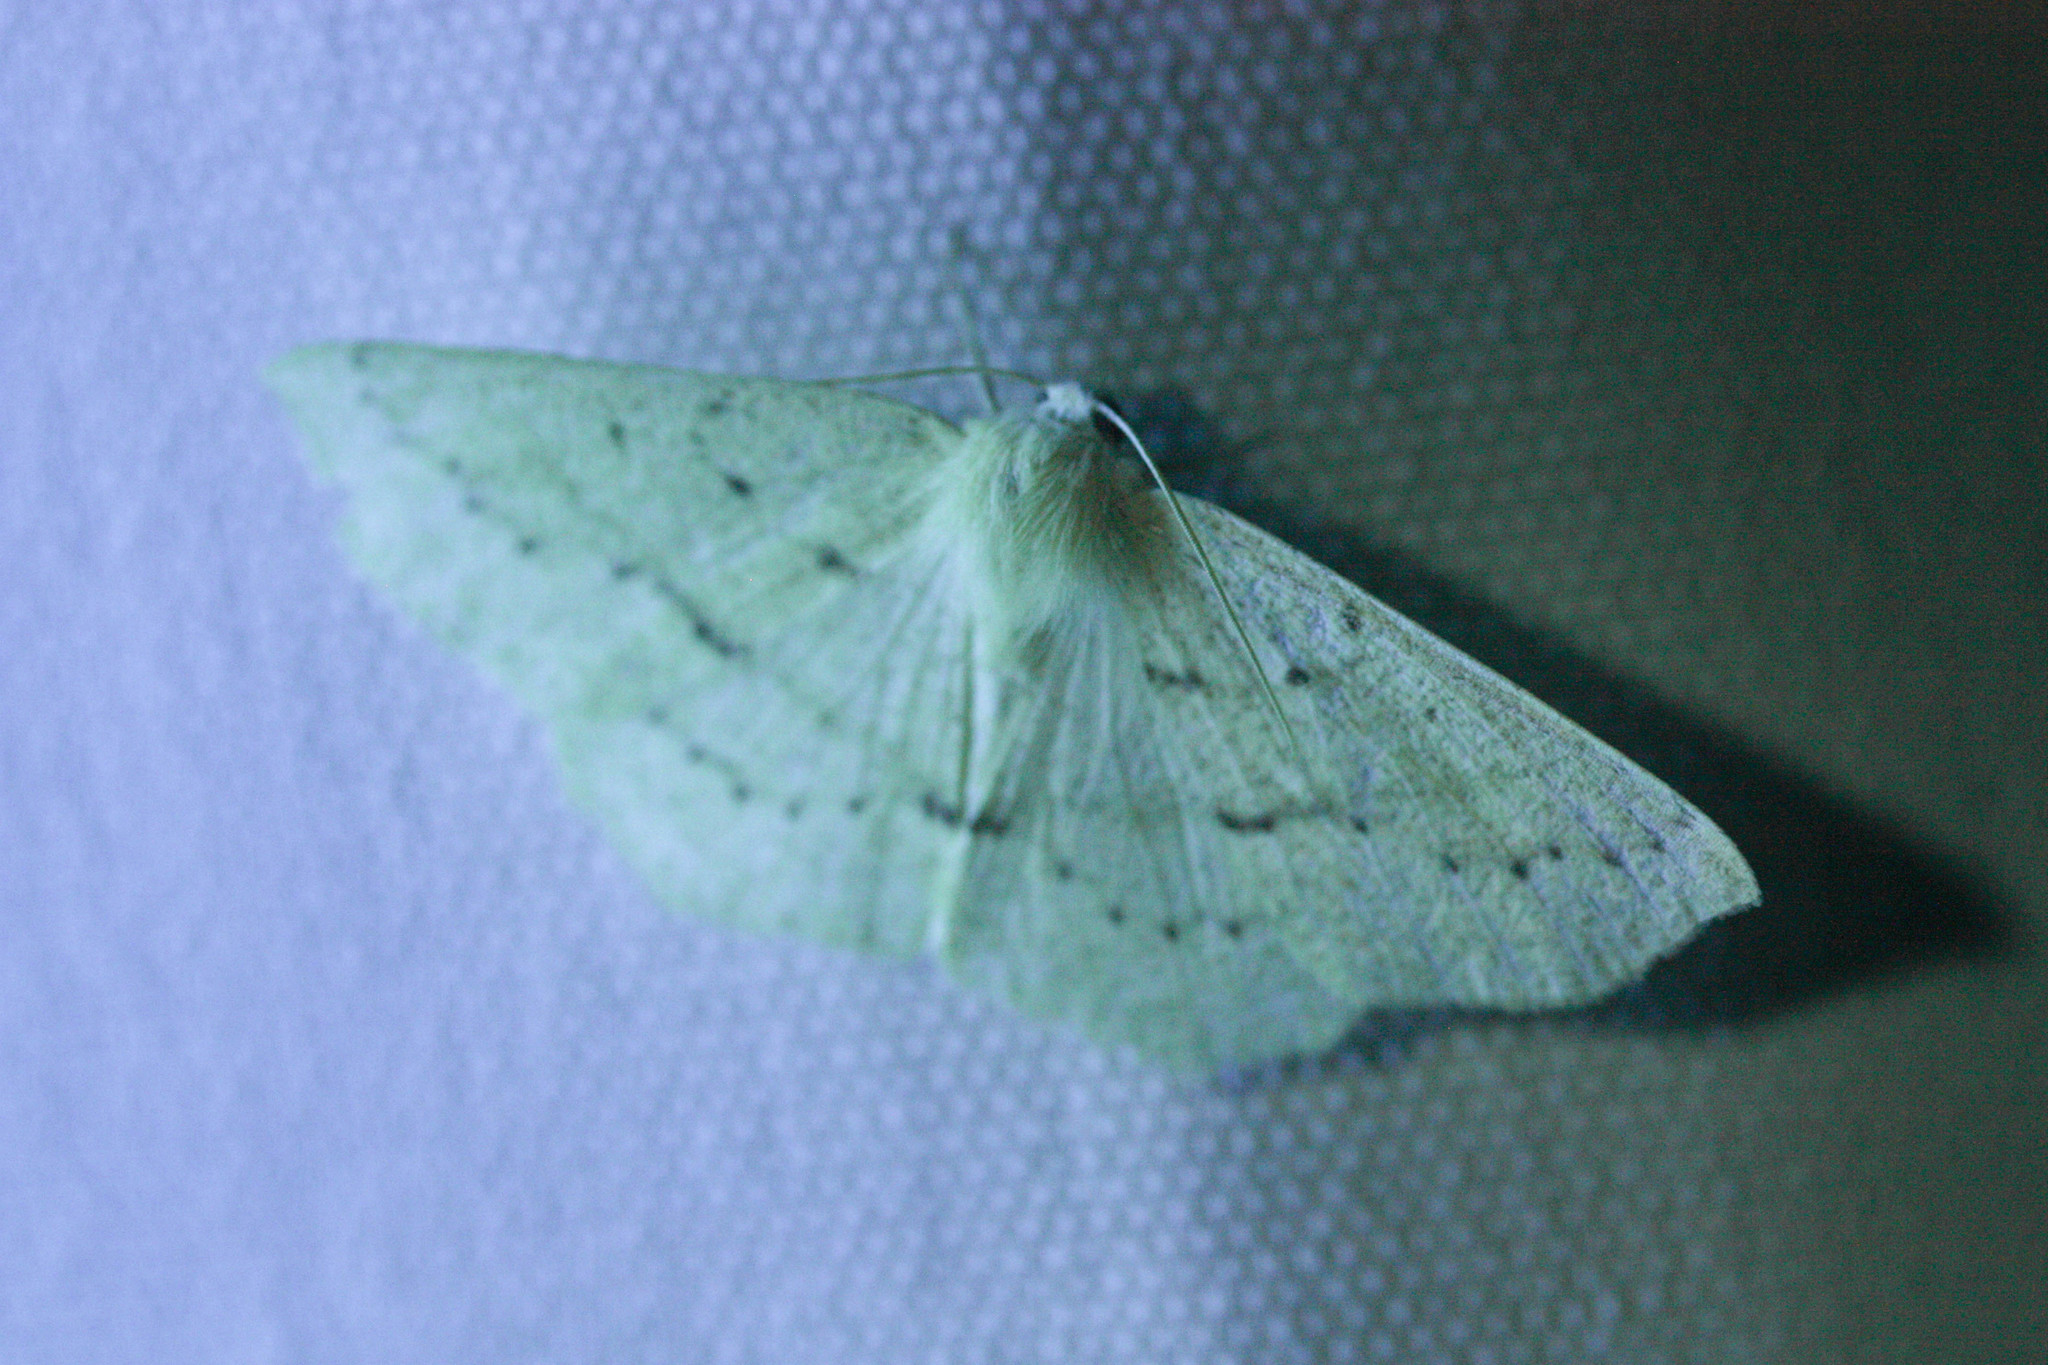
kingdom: Animalia
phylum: Arthropoda
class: Insecta
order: Lepidoptera
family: Geometridae
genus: Sabulodes
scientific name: Sabulodes aegrotata
